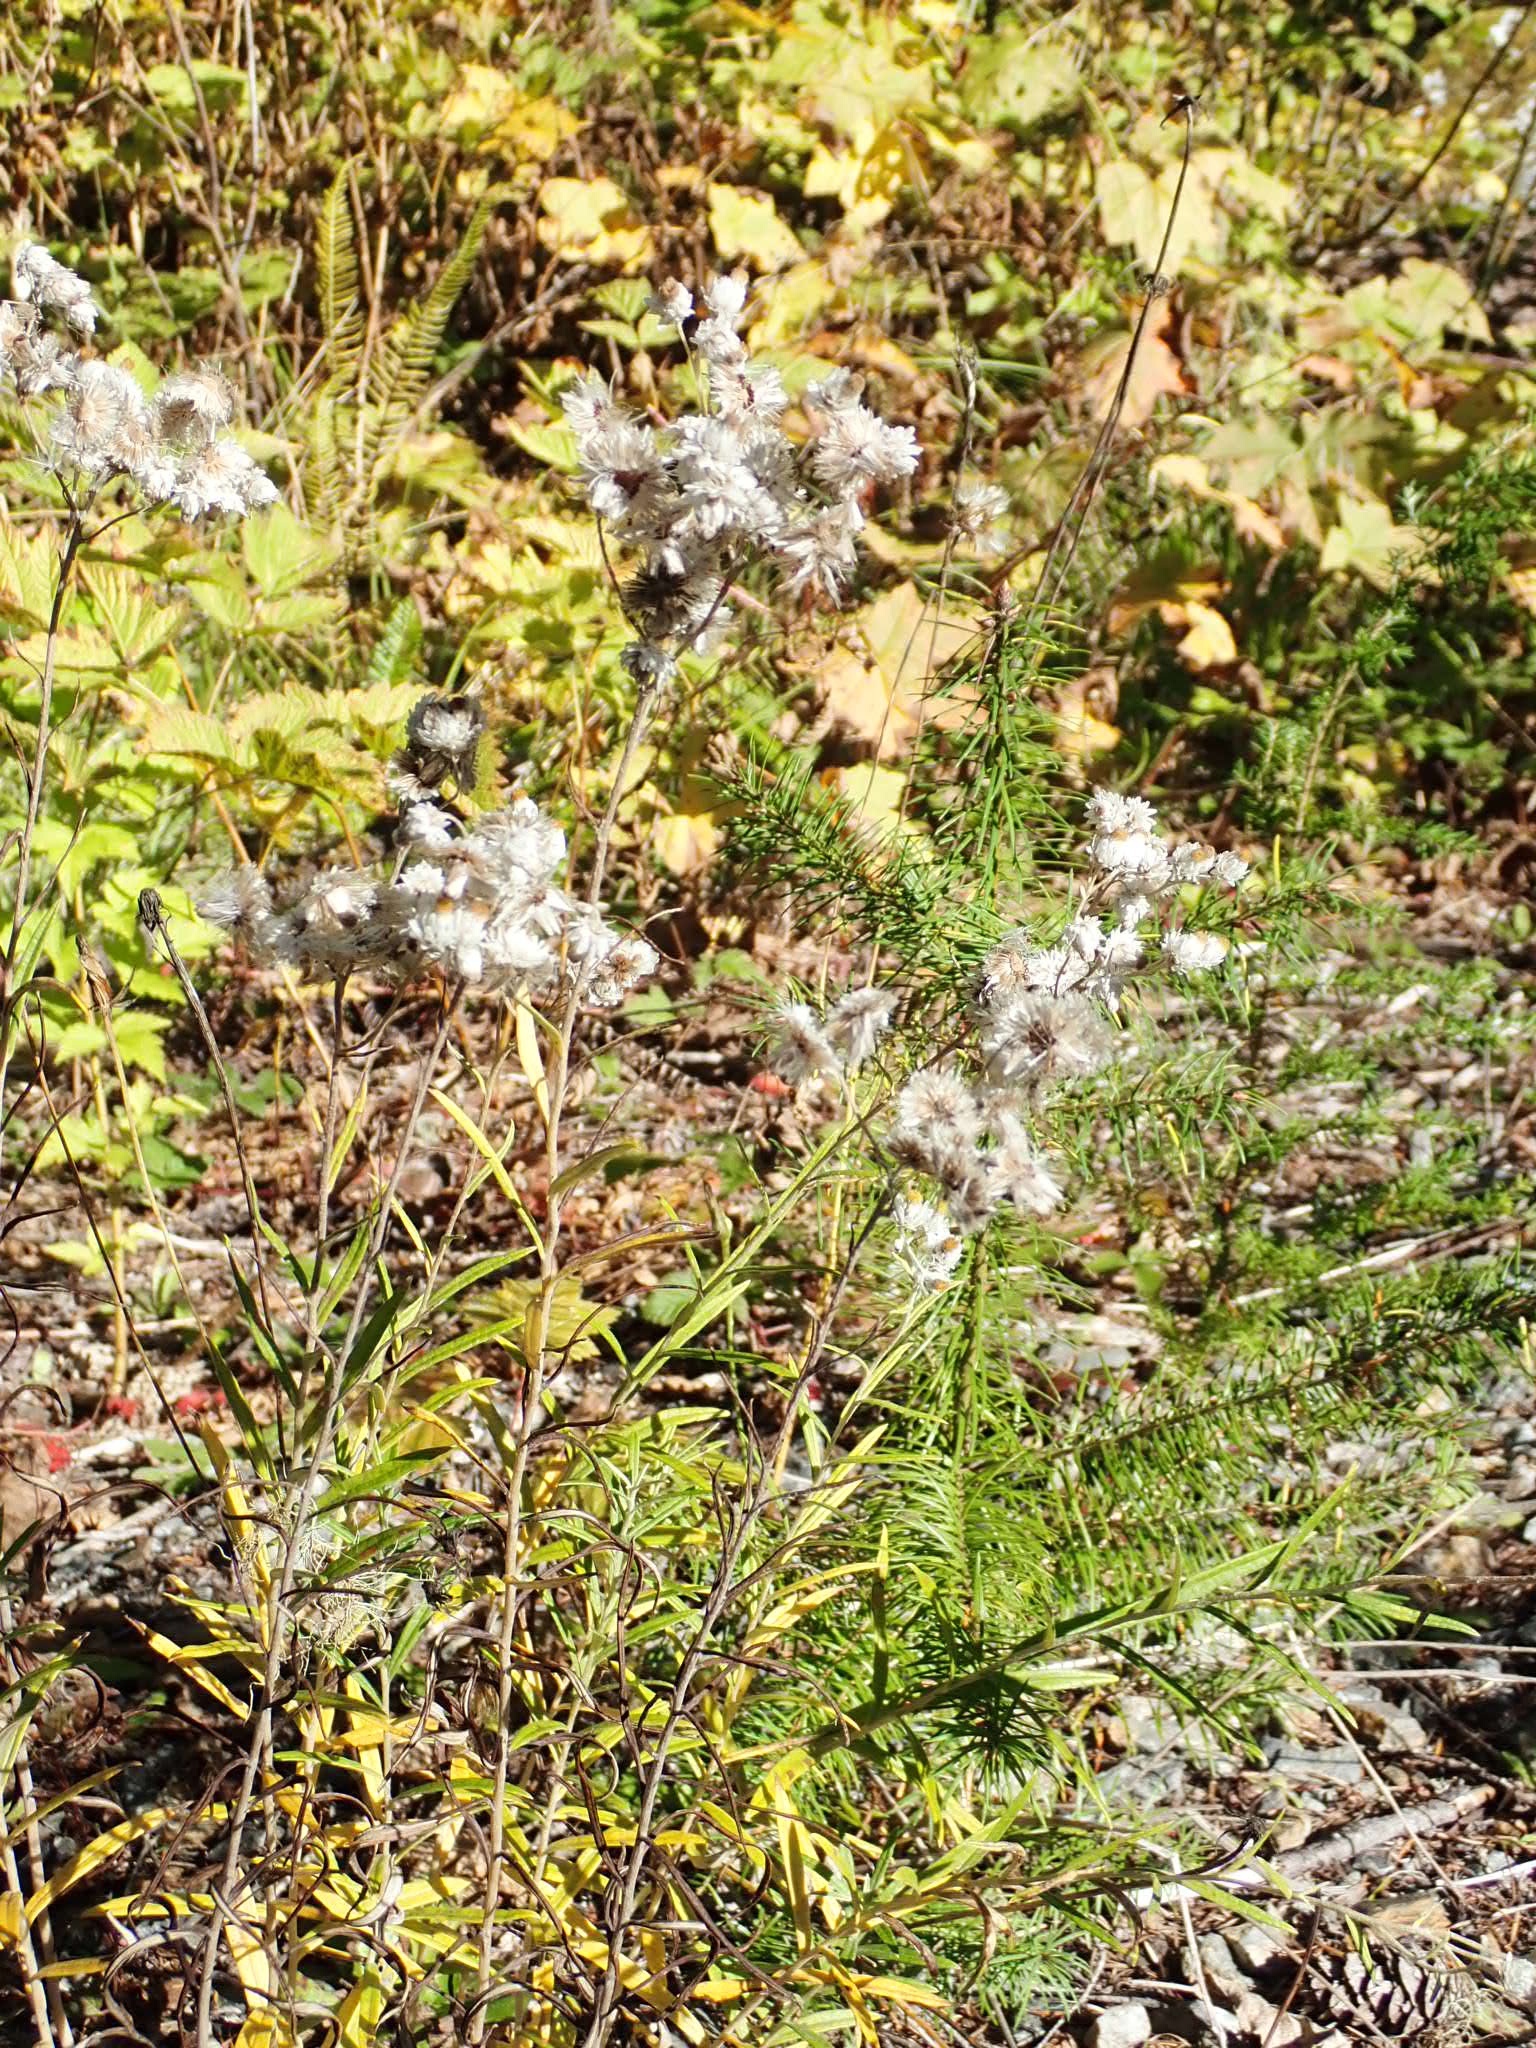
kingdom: Plantae
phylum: Tracheophyta
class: Magnoliopsida
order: Asterales
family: Asteraceae
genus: Anaphalis
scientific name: Anaphalis margaritacea
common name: Pearly everlasting
